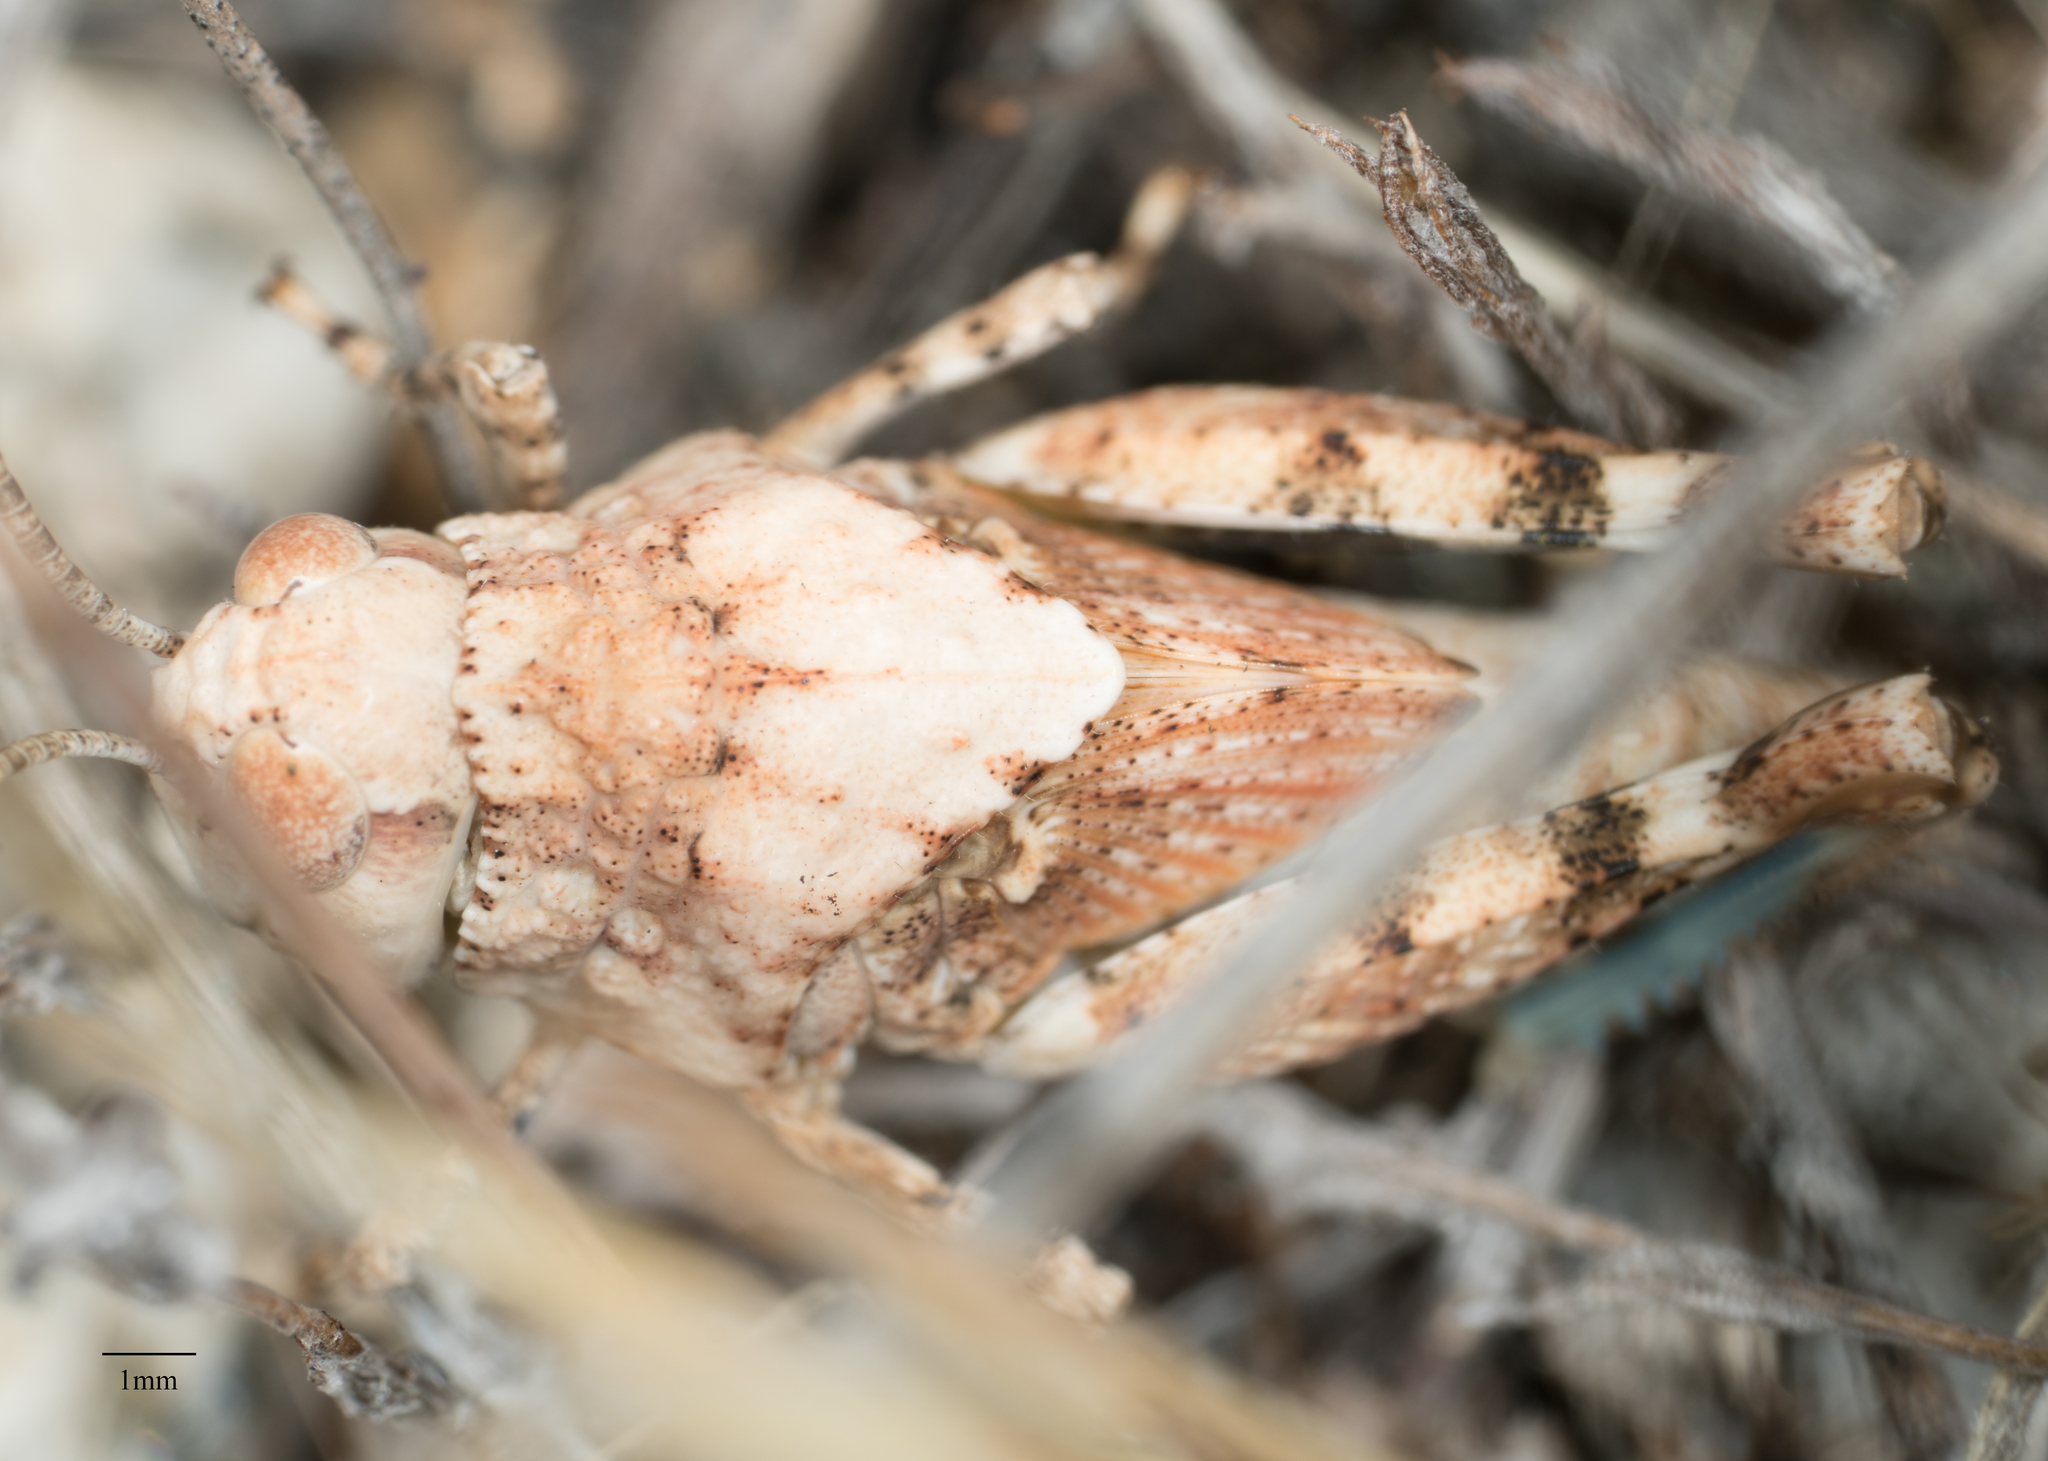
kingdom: Animalia
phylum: Arthropoda
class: Insecta
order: Orthoptera
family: Acrididae
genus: Leprus
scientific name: Leprus intermedius
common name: Saussure's blue-winged grasshopper
